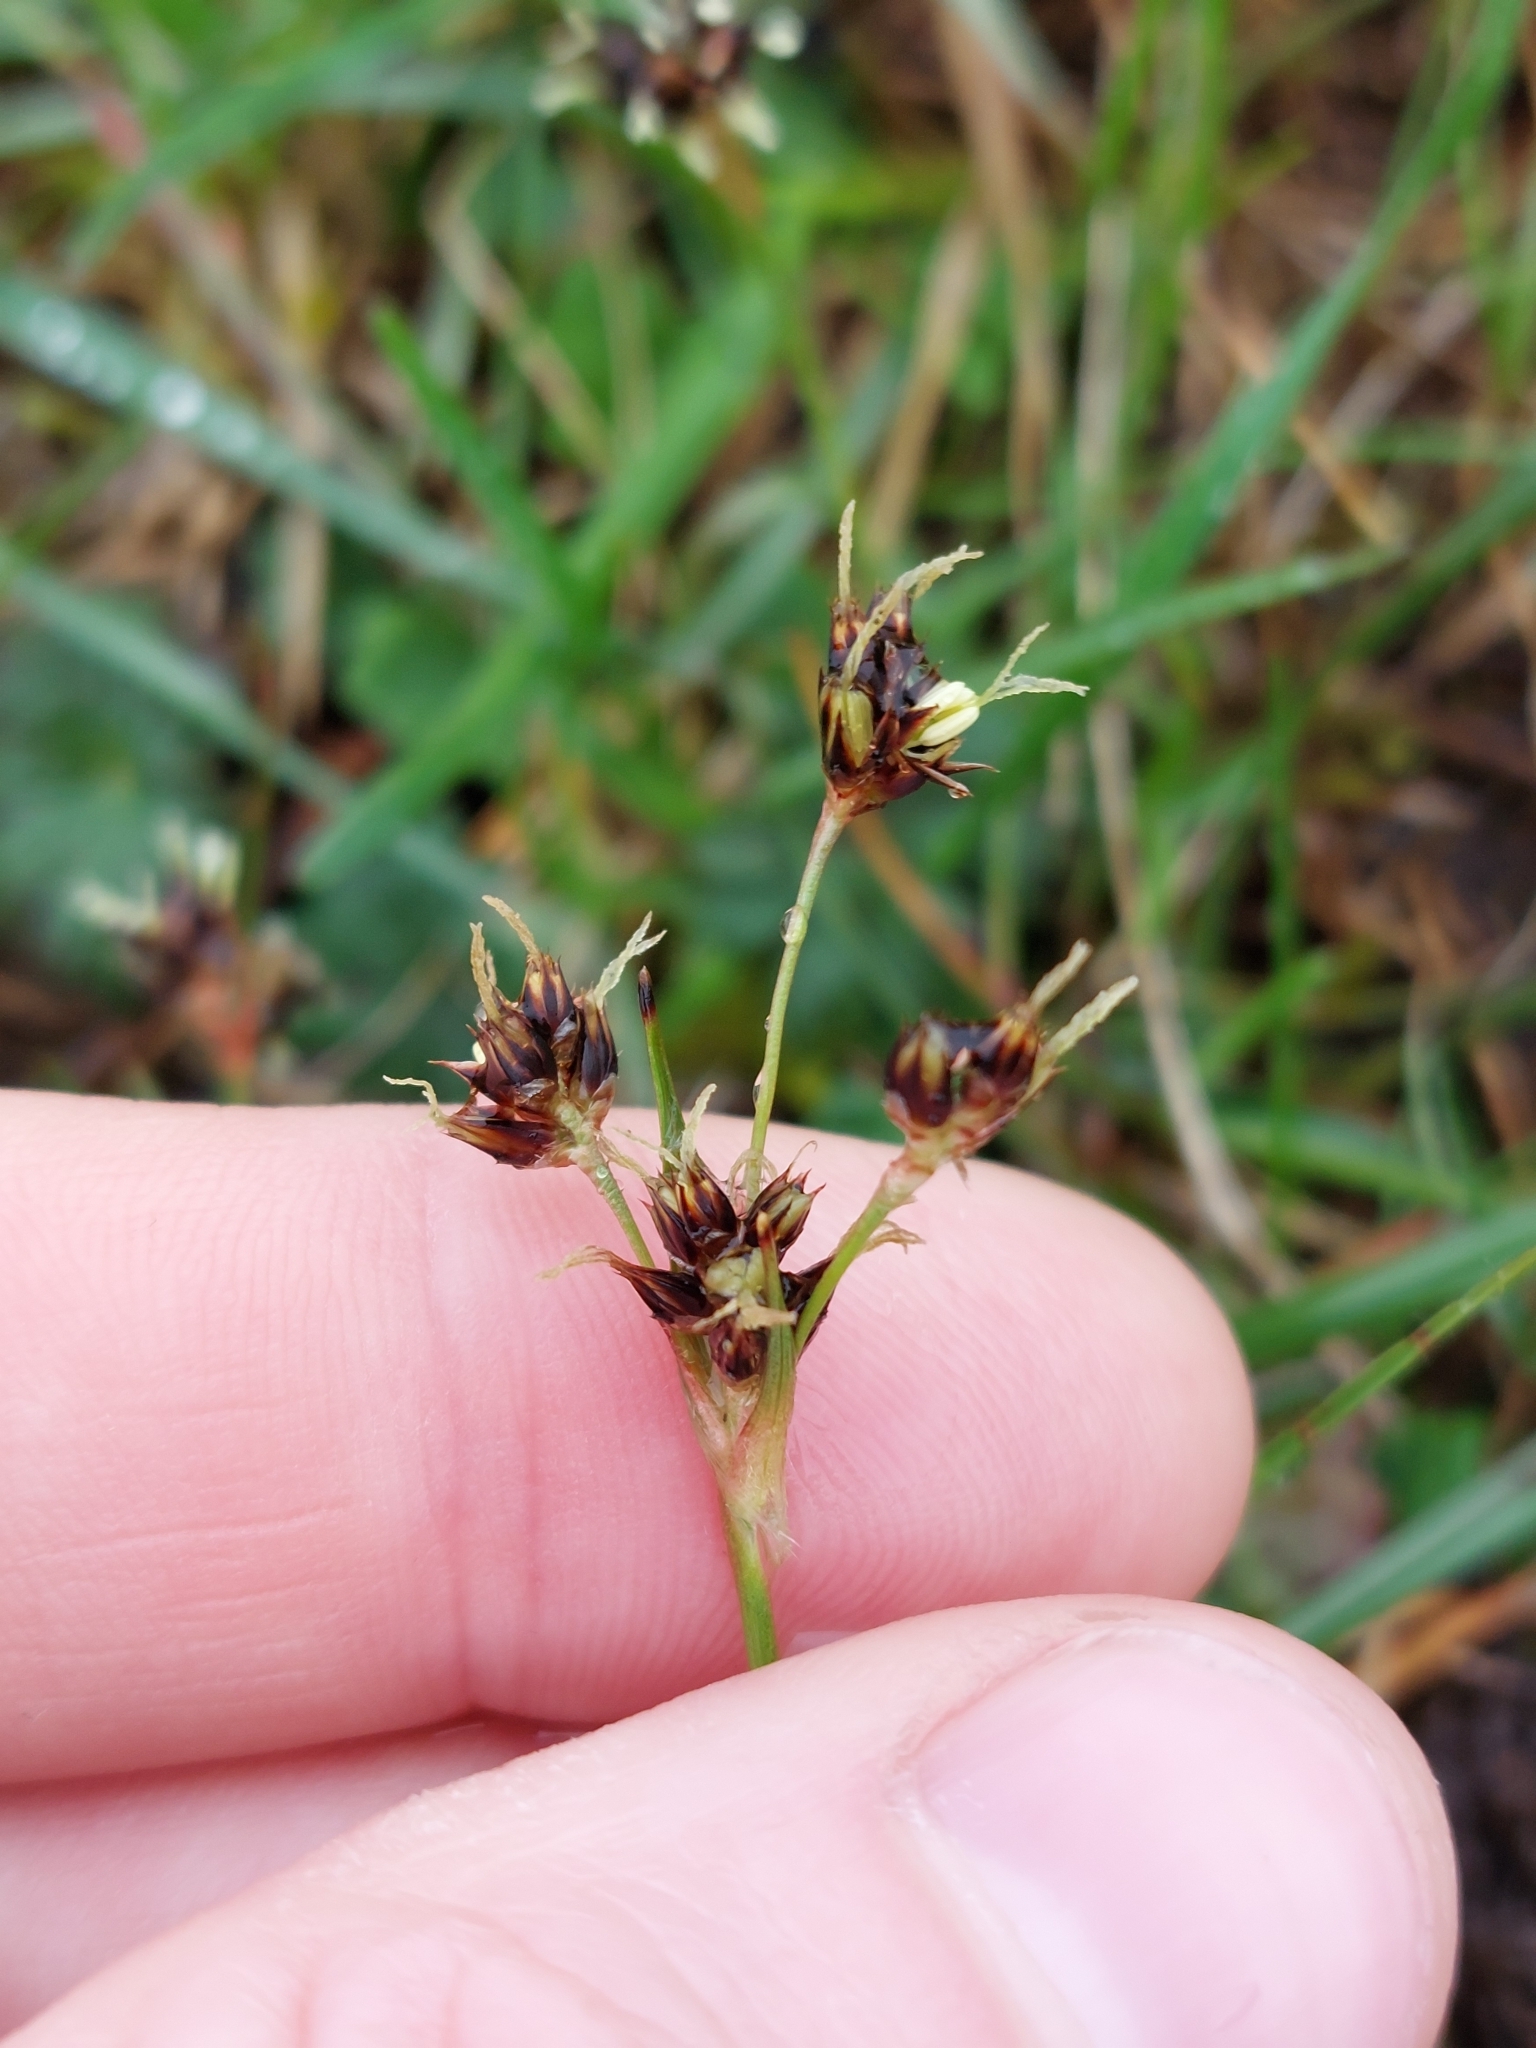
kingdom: Plantae
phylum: Tracheophyta
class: Liliopsida
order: Poales
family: Juncaceae
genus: Luzula
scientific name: Luzula campestris
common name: Field wood-rush
